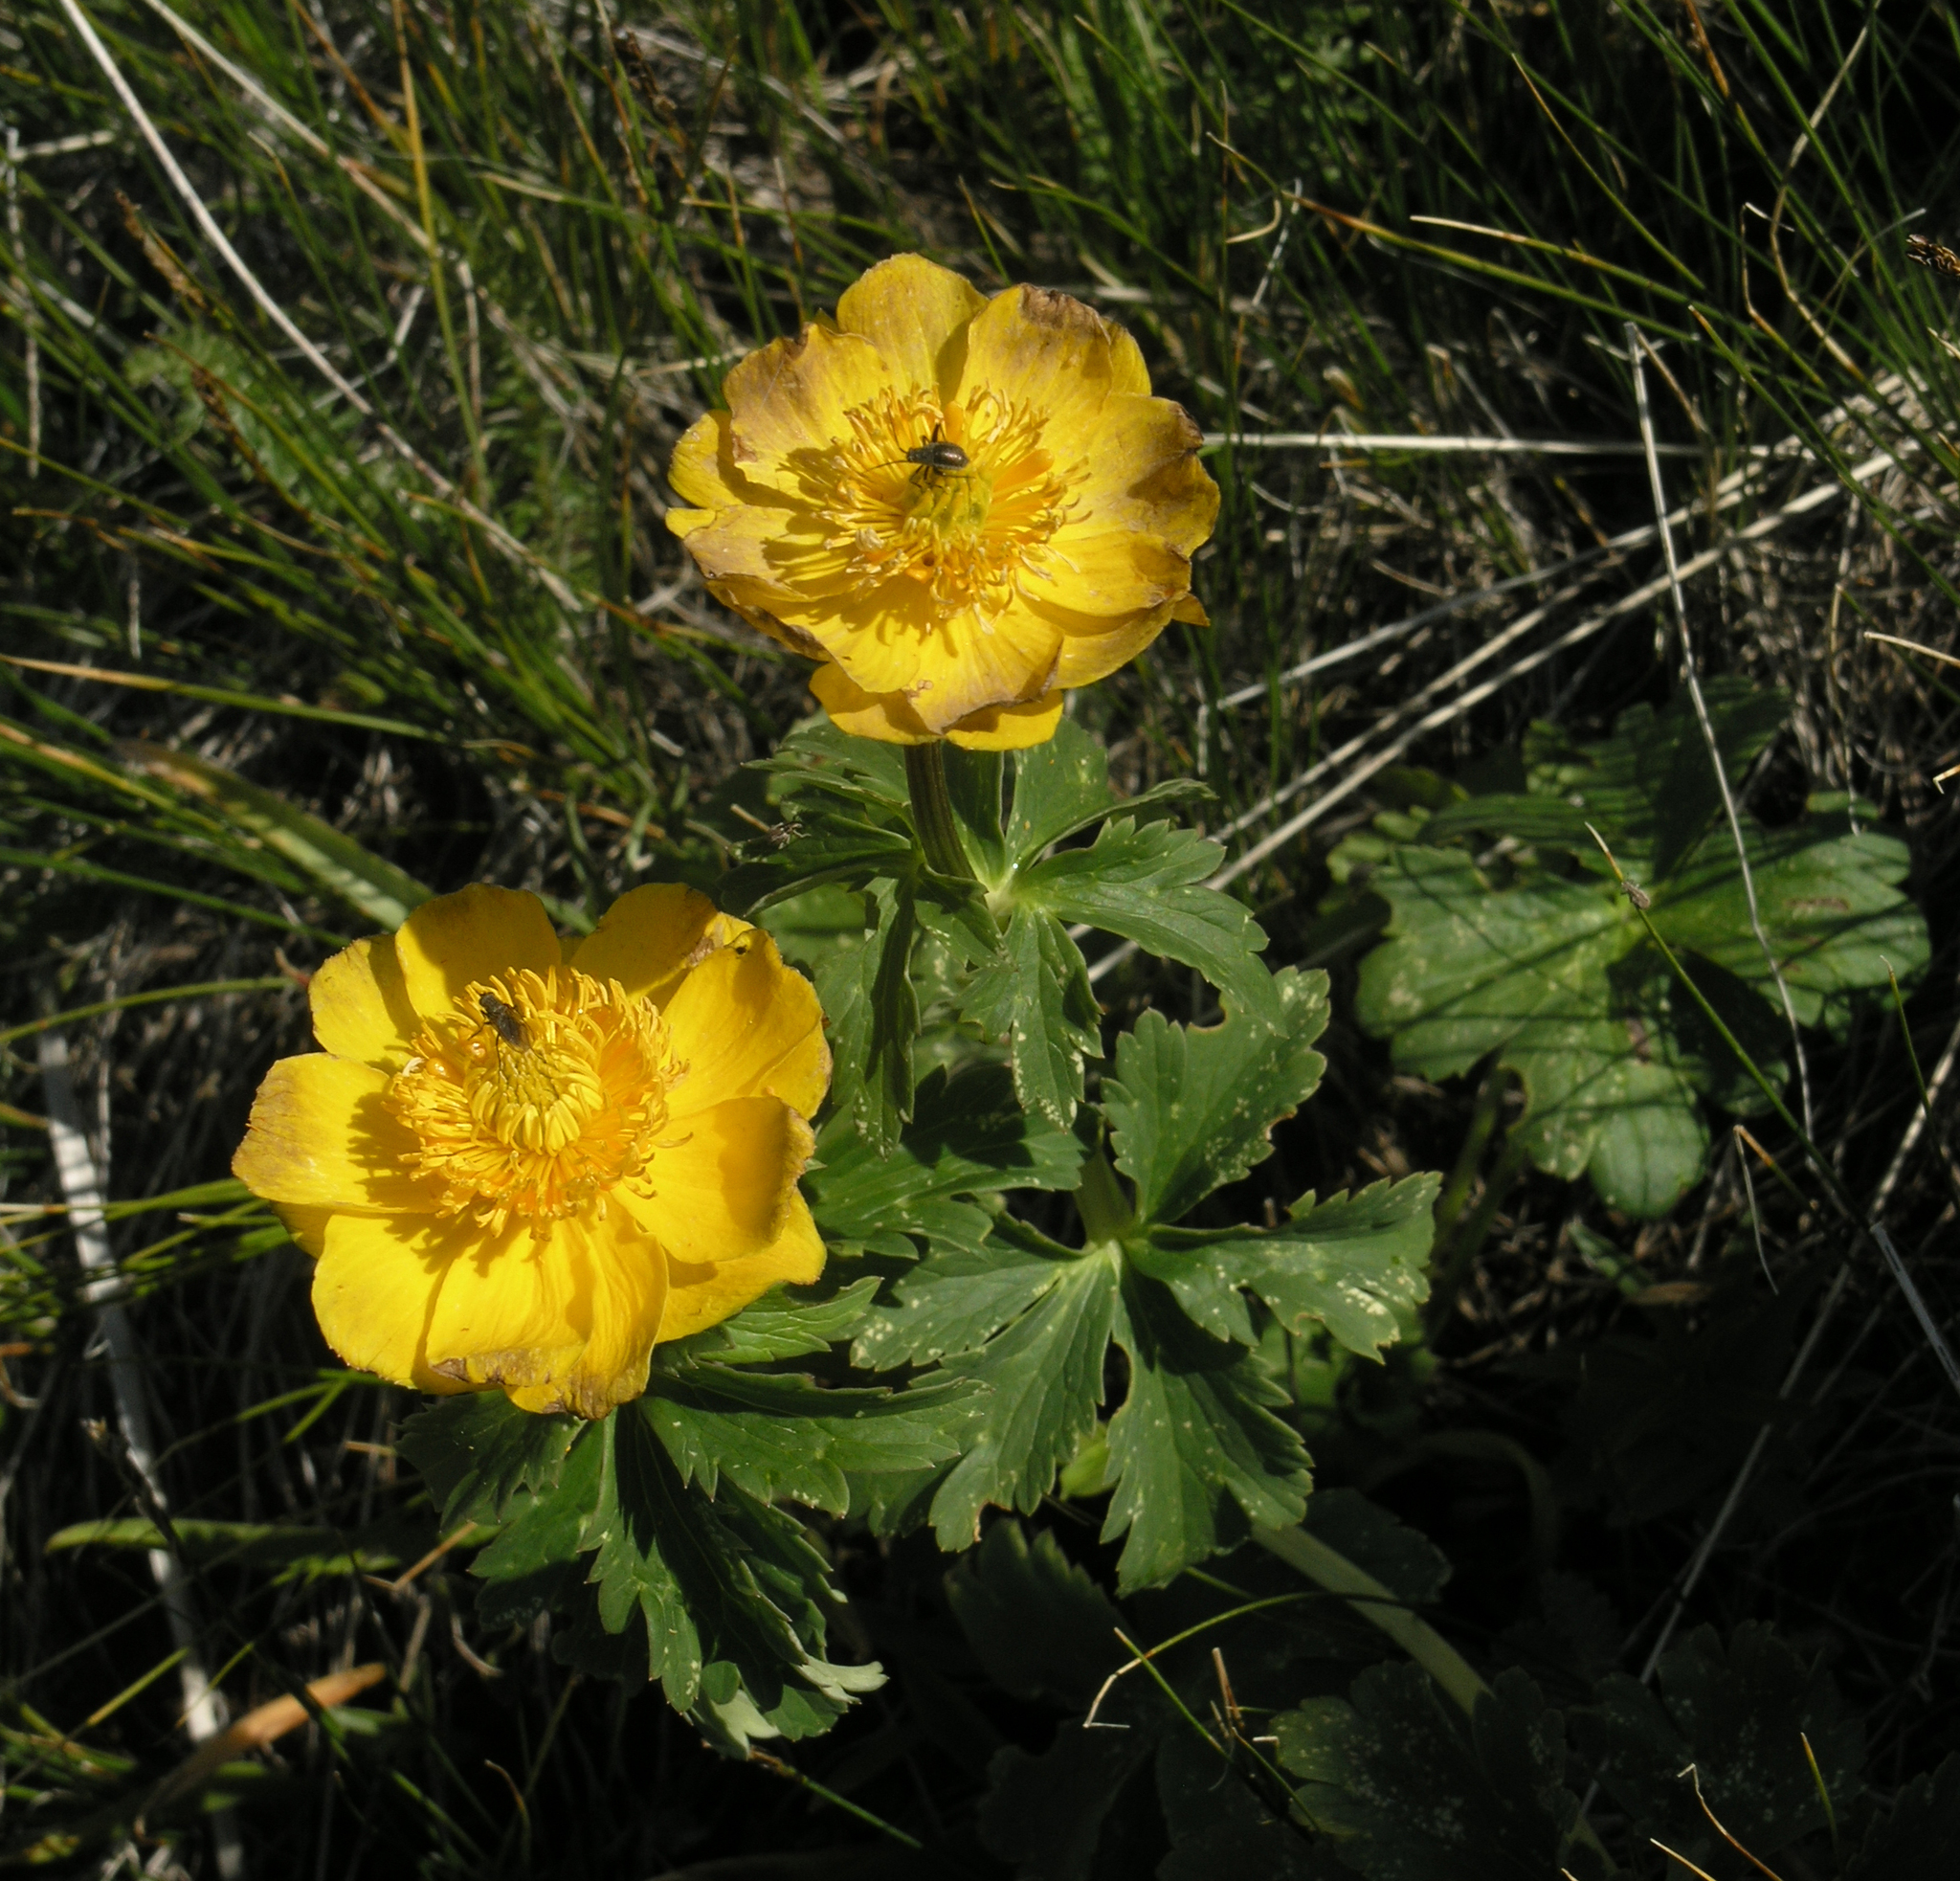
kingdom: Plantae
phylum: Tracheophyta
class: Magnoliopsida
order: Ranunculales
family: Ranunculaceae
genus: Trollius
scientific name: Trollius dschungaricus
